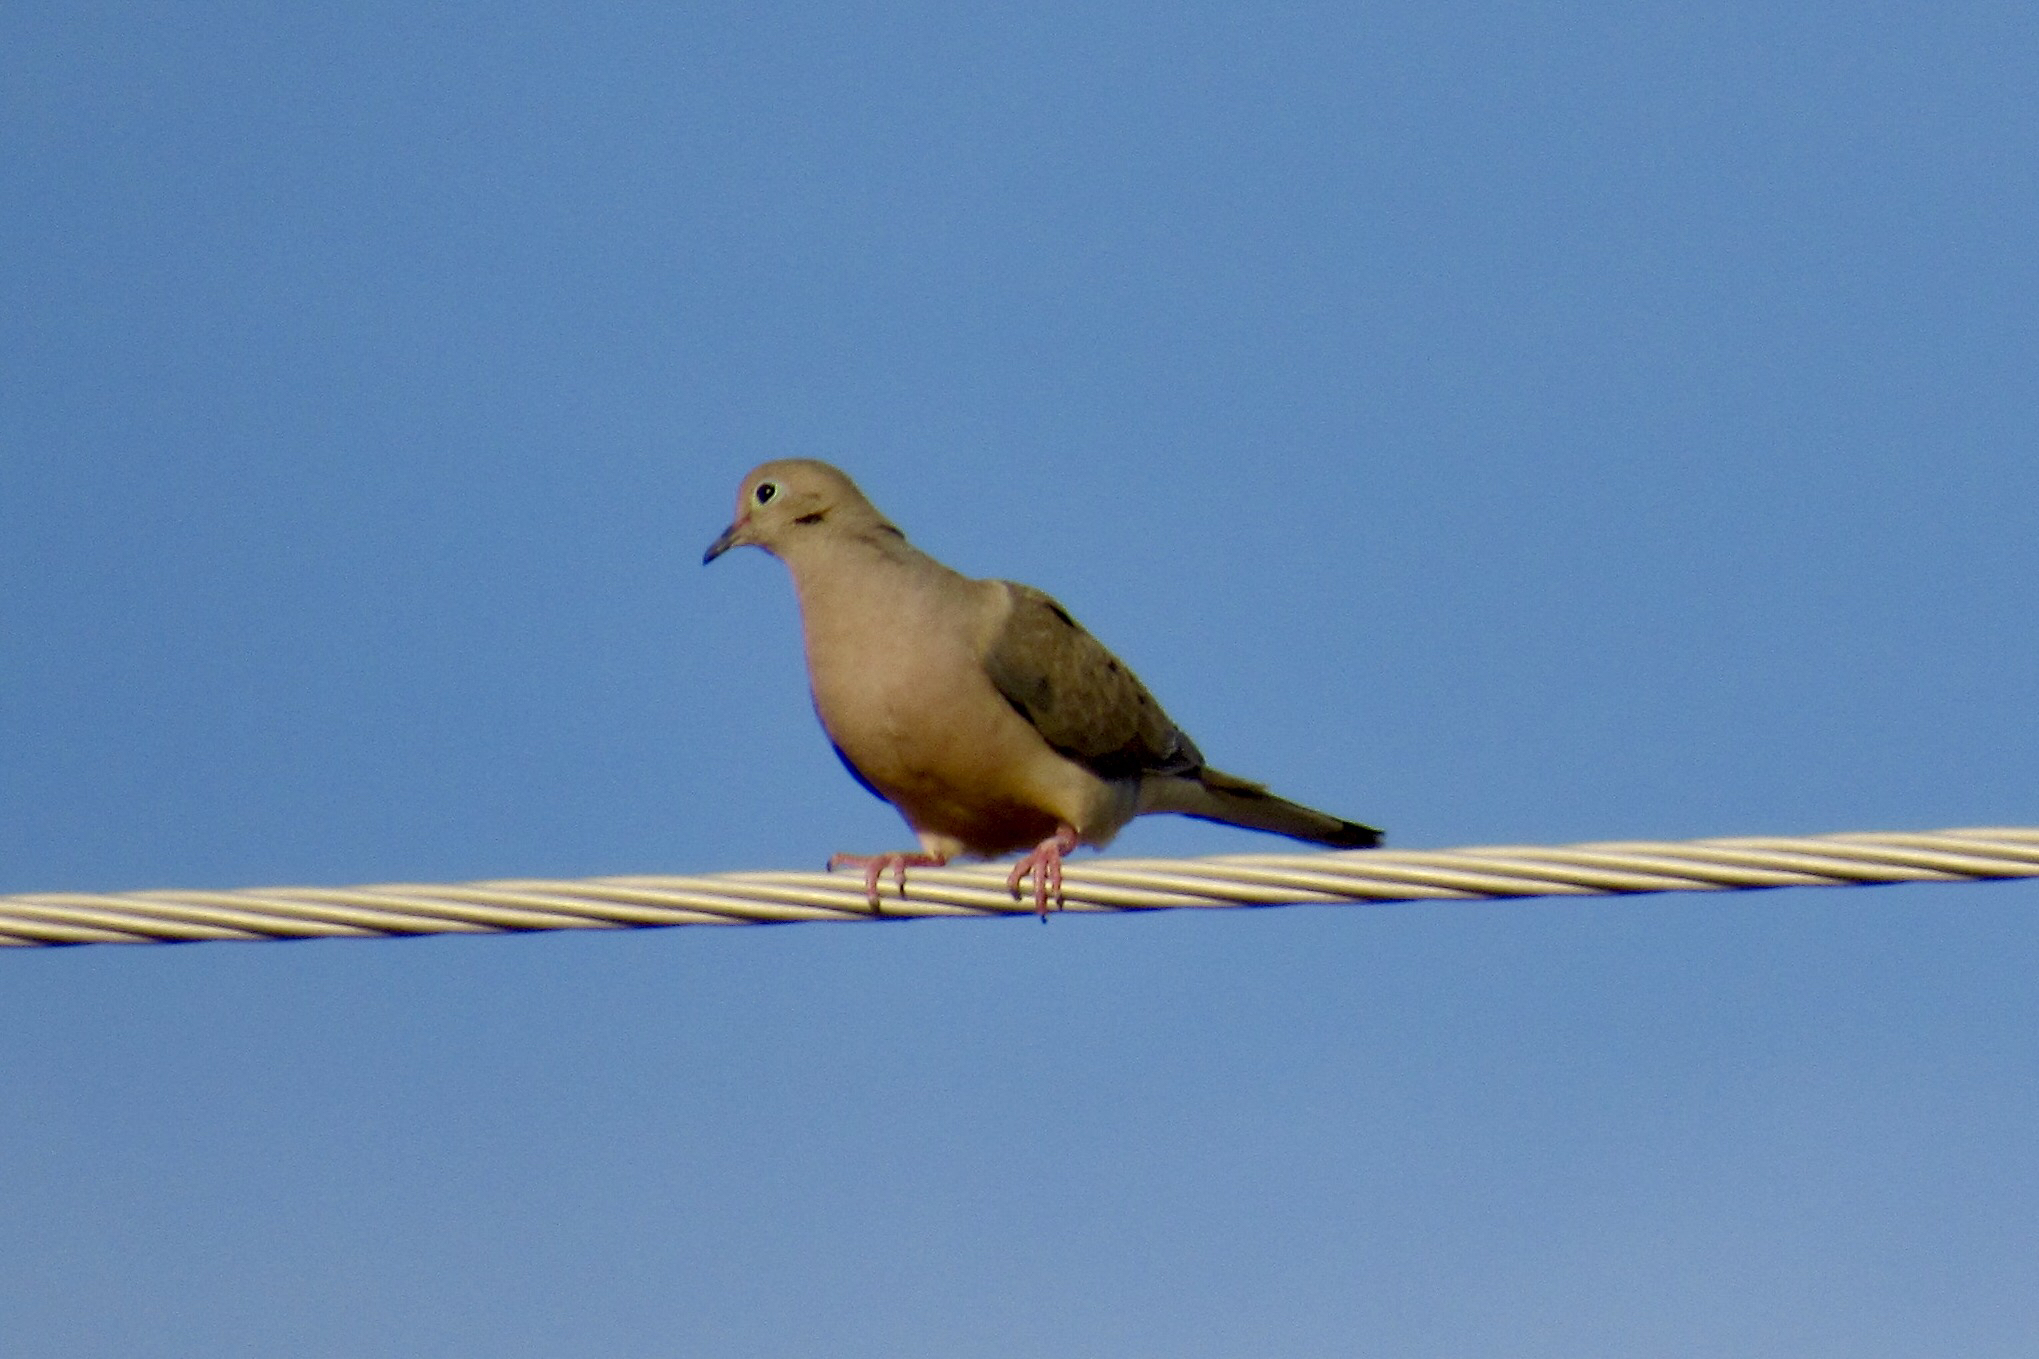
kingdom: Animalia
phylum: Chordata
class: Aves
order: Columbiformes
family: Columbidae
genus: Zenaida
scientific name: Zenaida macroura
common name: Mourning dove
